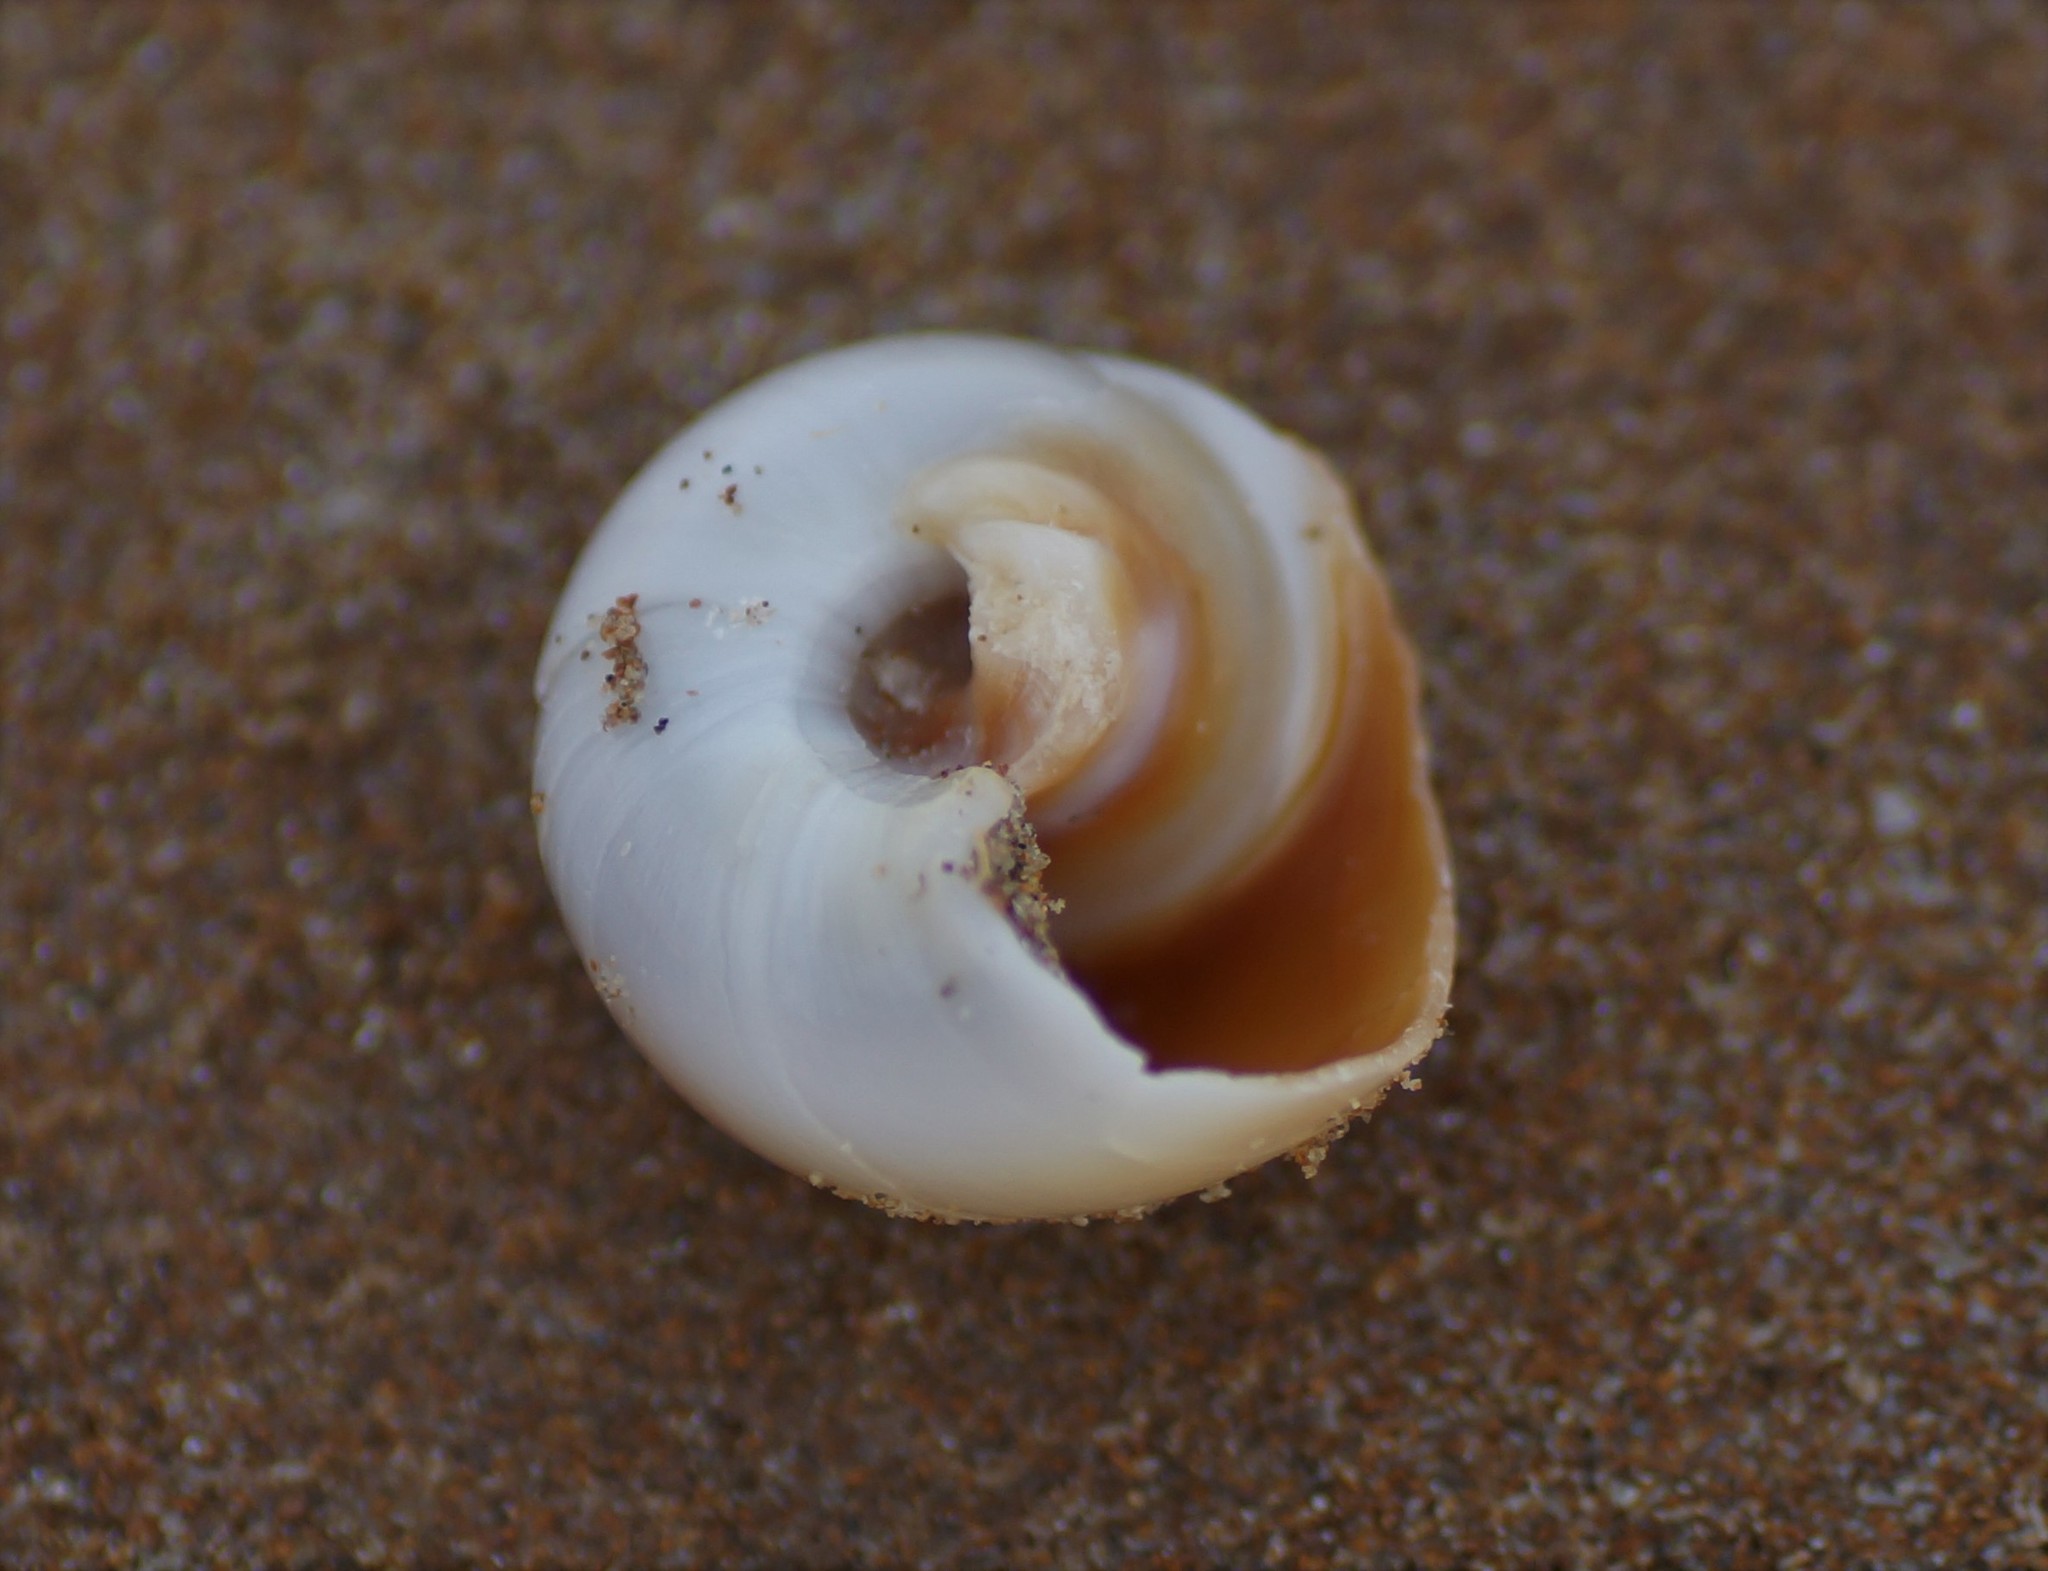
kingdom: Animalia
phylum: Mollusca
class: Gastropoda
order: Littorinimorpha
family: Naticidae
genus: Neverita
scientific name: Neverita didyma
